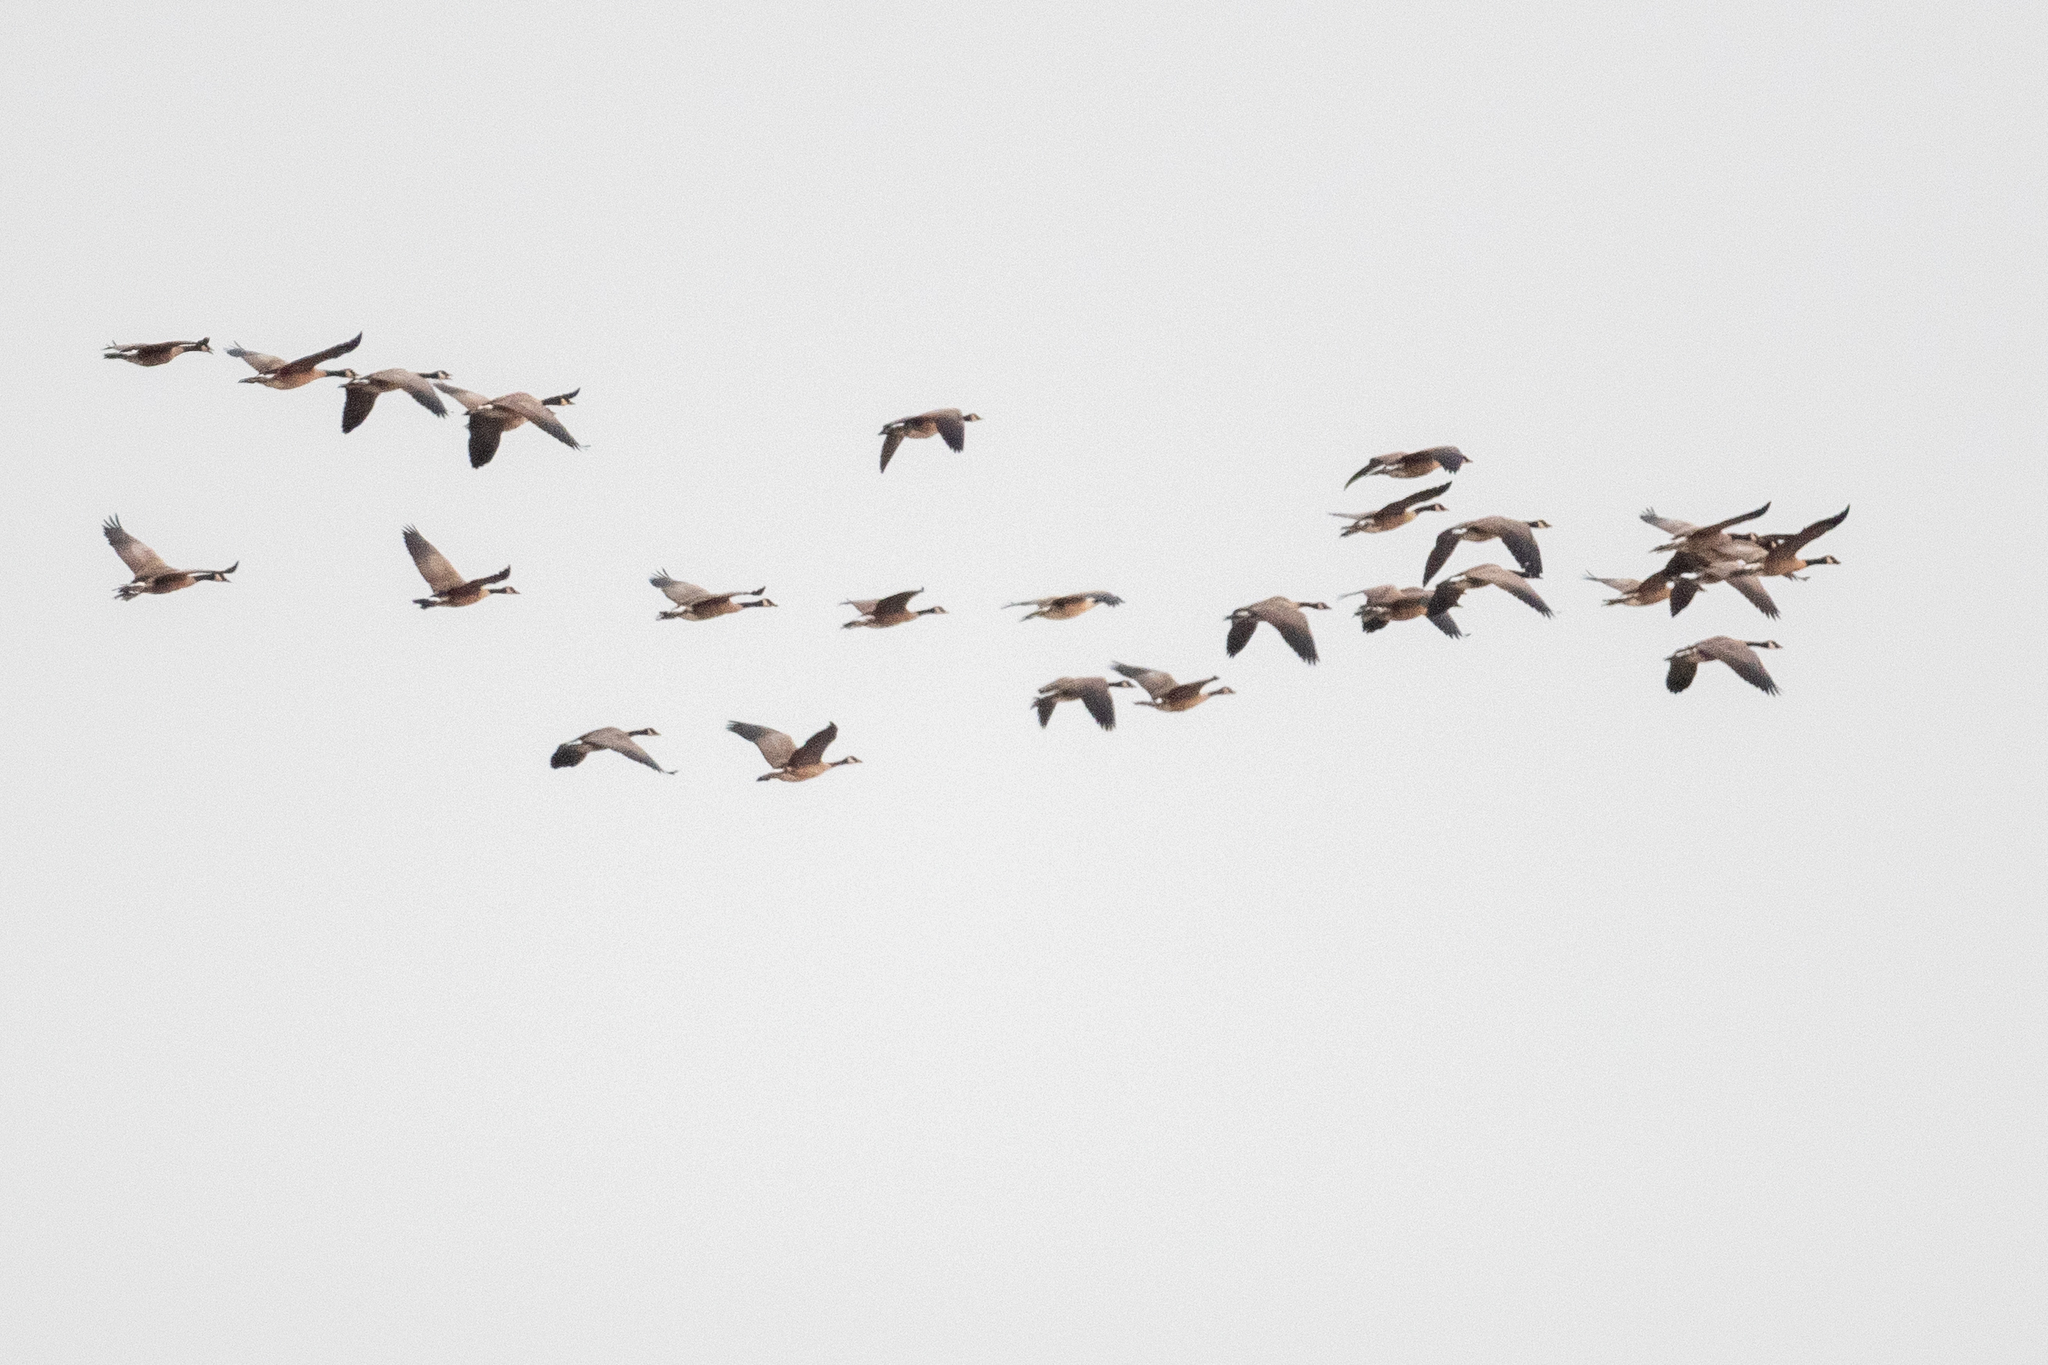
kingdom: Animalia
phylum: Chordata
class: Aves
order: Anseriformes
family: Anatidae
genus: Branta
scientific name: Branta canadensis
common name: Canada goose
